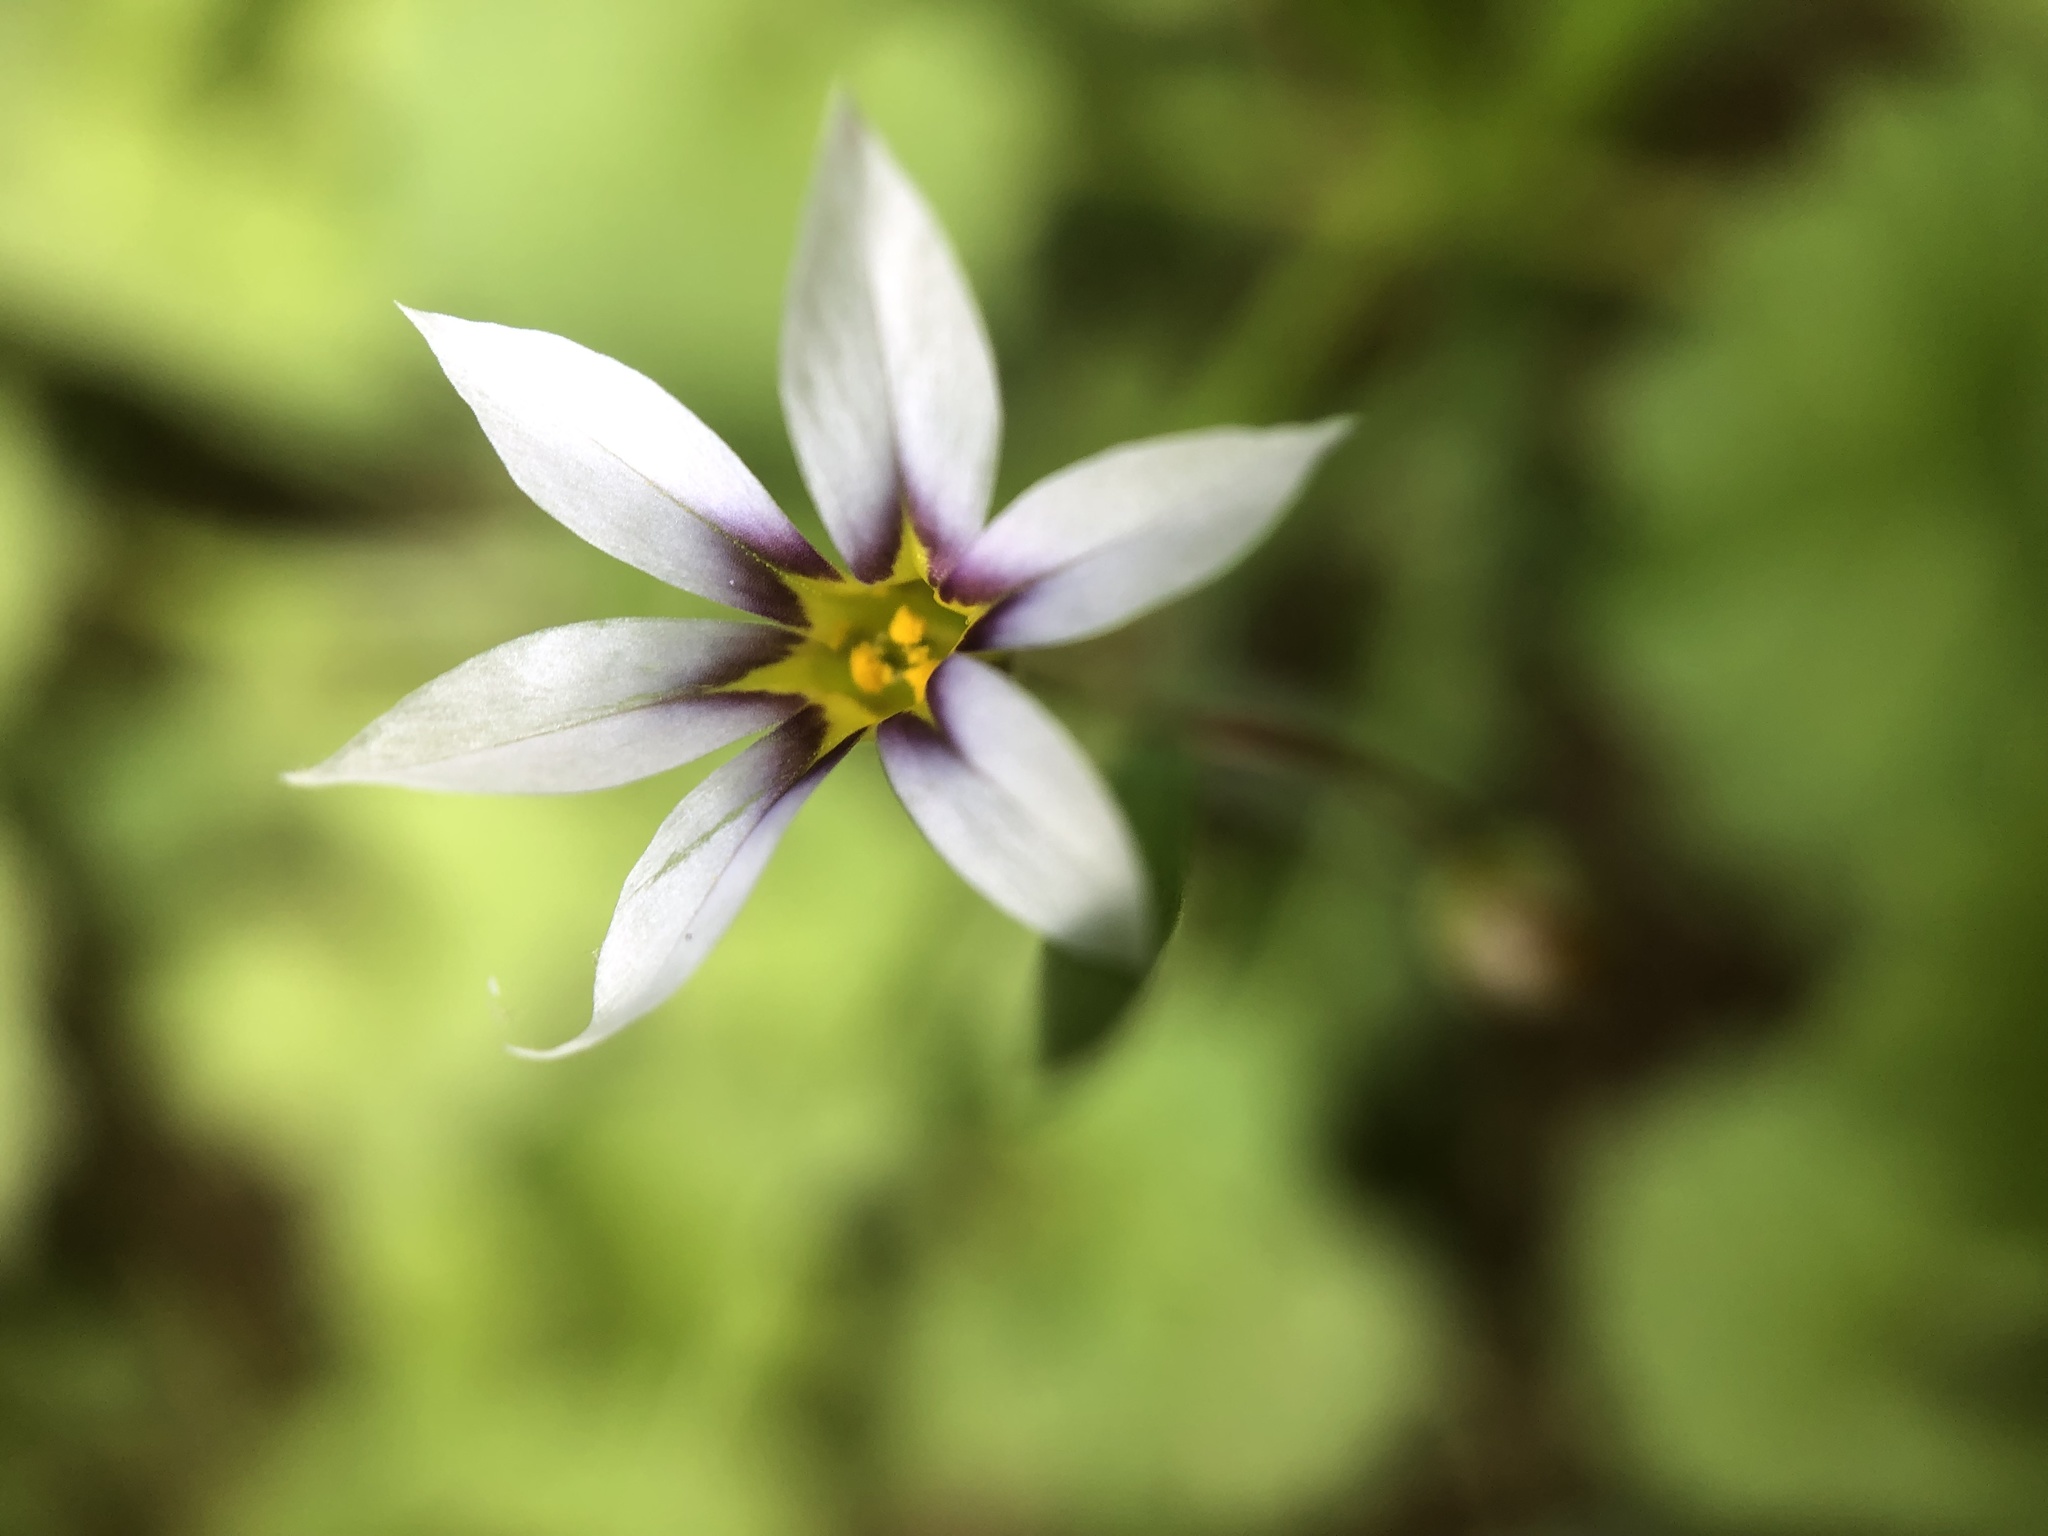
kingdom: Plantae
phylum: Tracheophyta
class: Liliopsida
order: Asparagales
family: Iridaceae
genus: Sisyrinchium
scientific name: Sisyrinchium micranthum
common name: Bermuda pigroot
